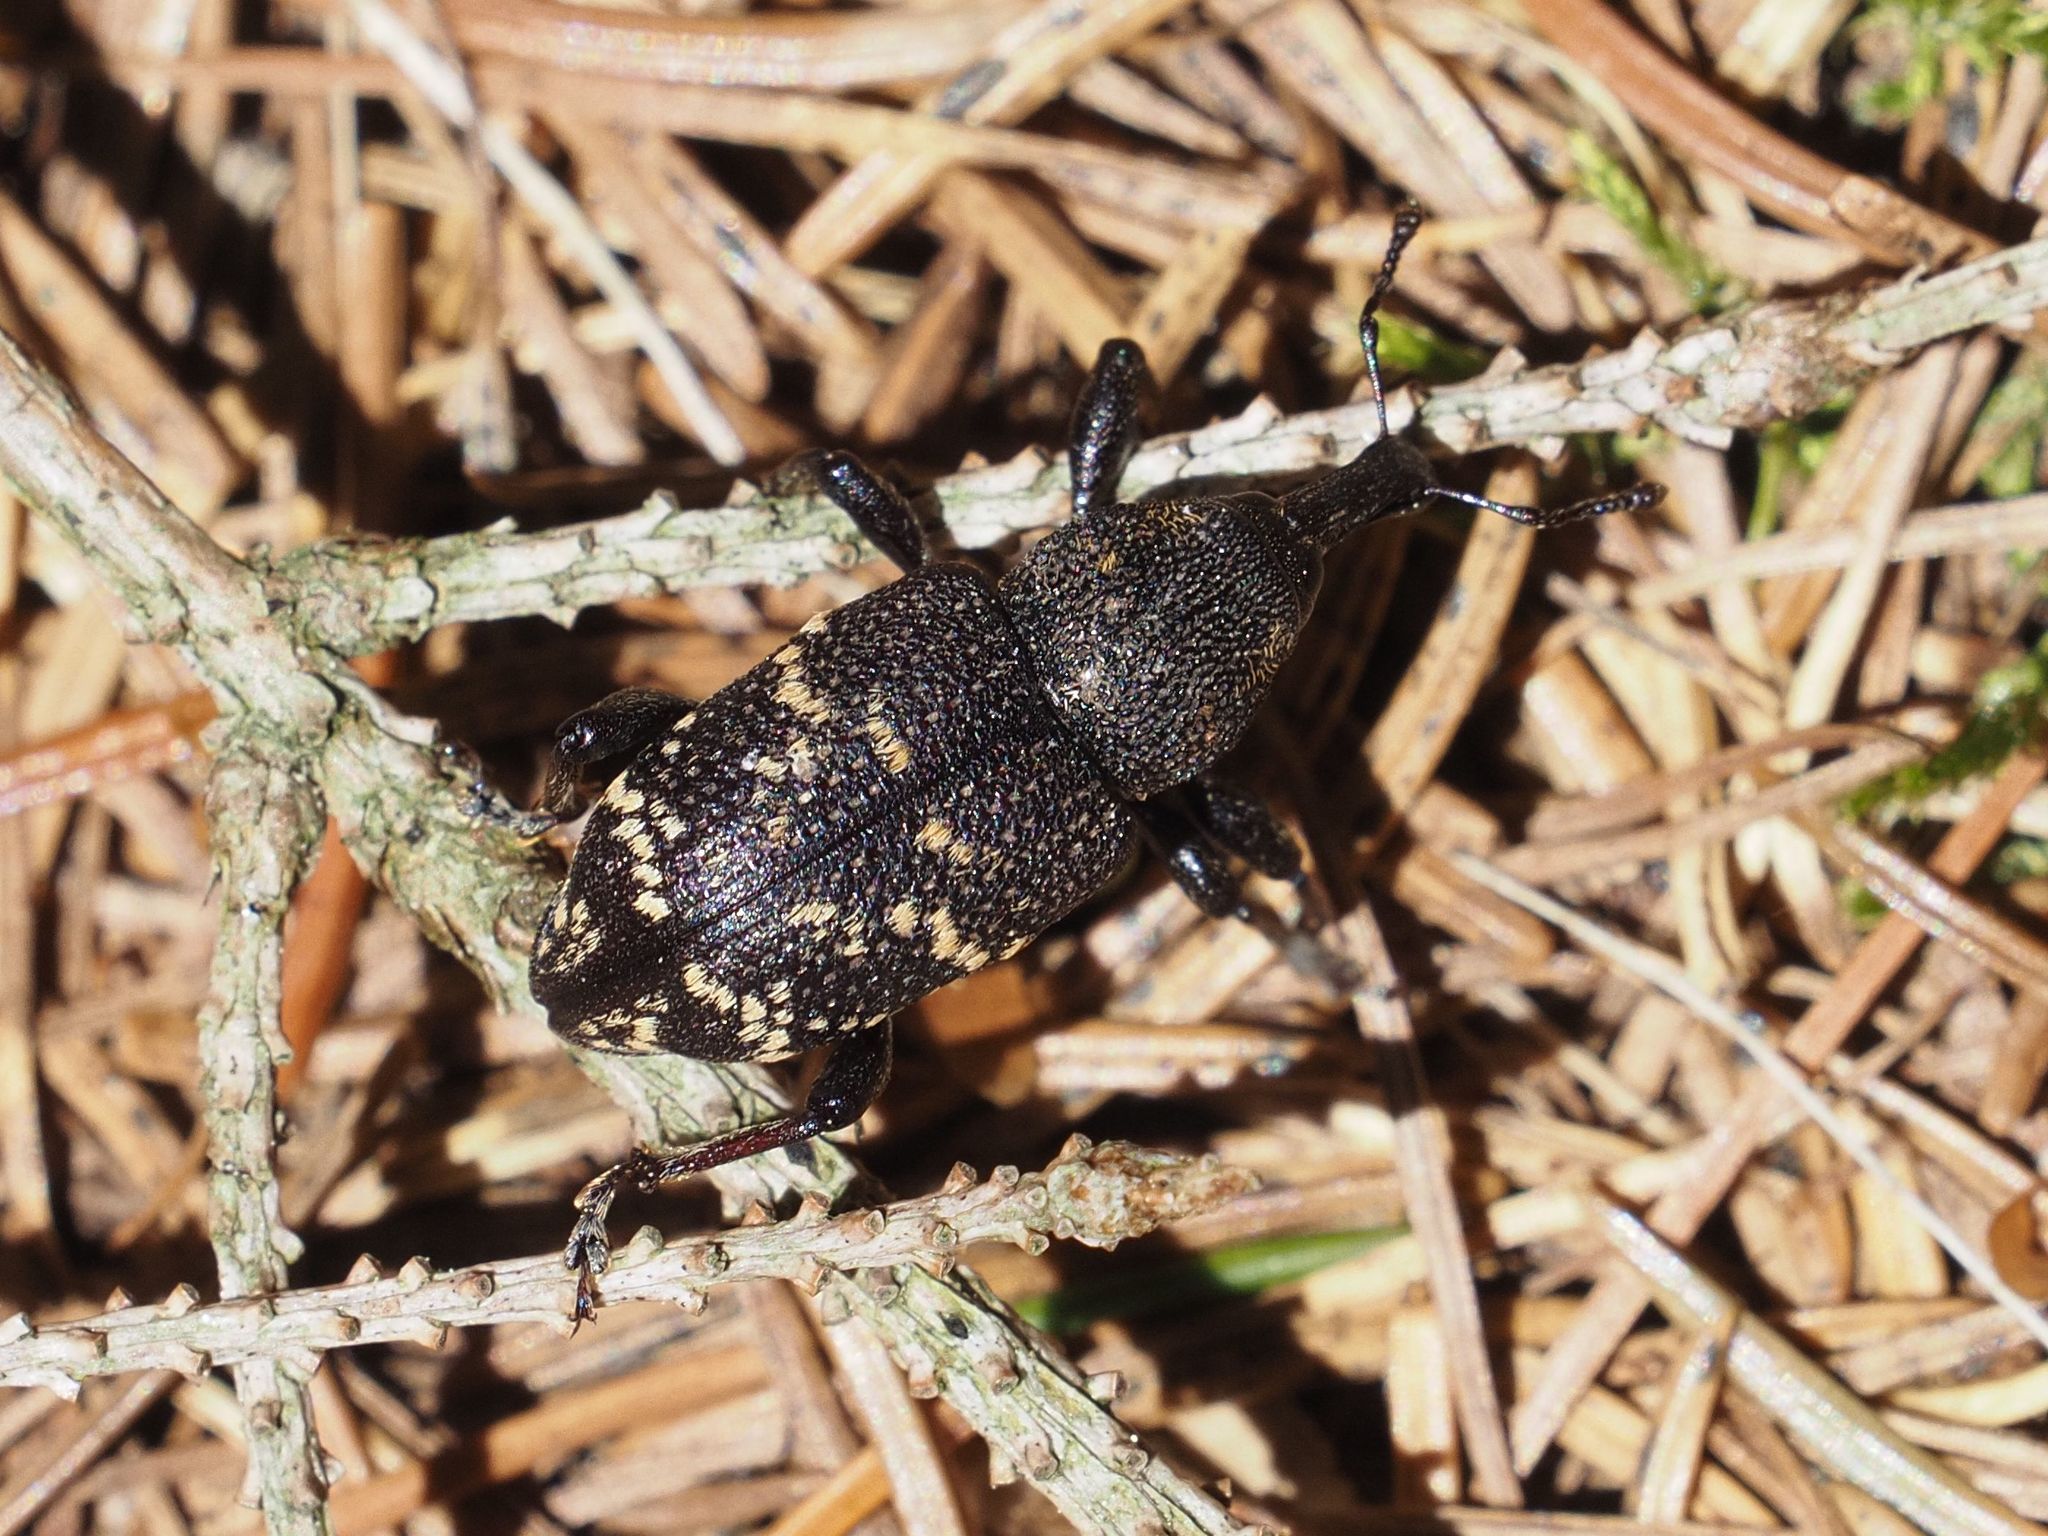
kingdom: Animalia
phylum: Arthropoda
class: Insecta
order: Coleoptera
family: Curculionidae
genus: Hylobius
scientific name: Hylobius abietis
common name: Large pine weevil
